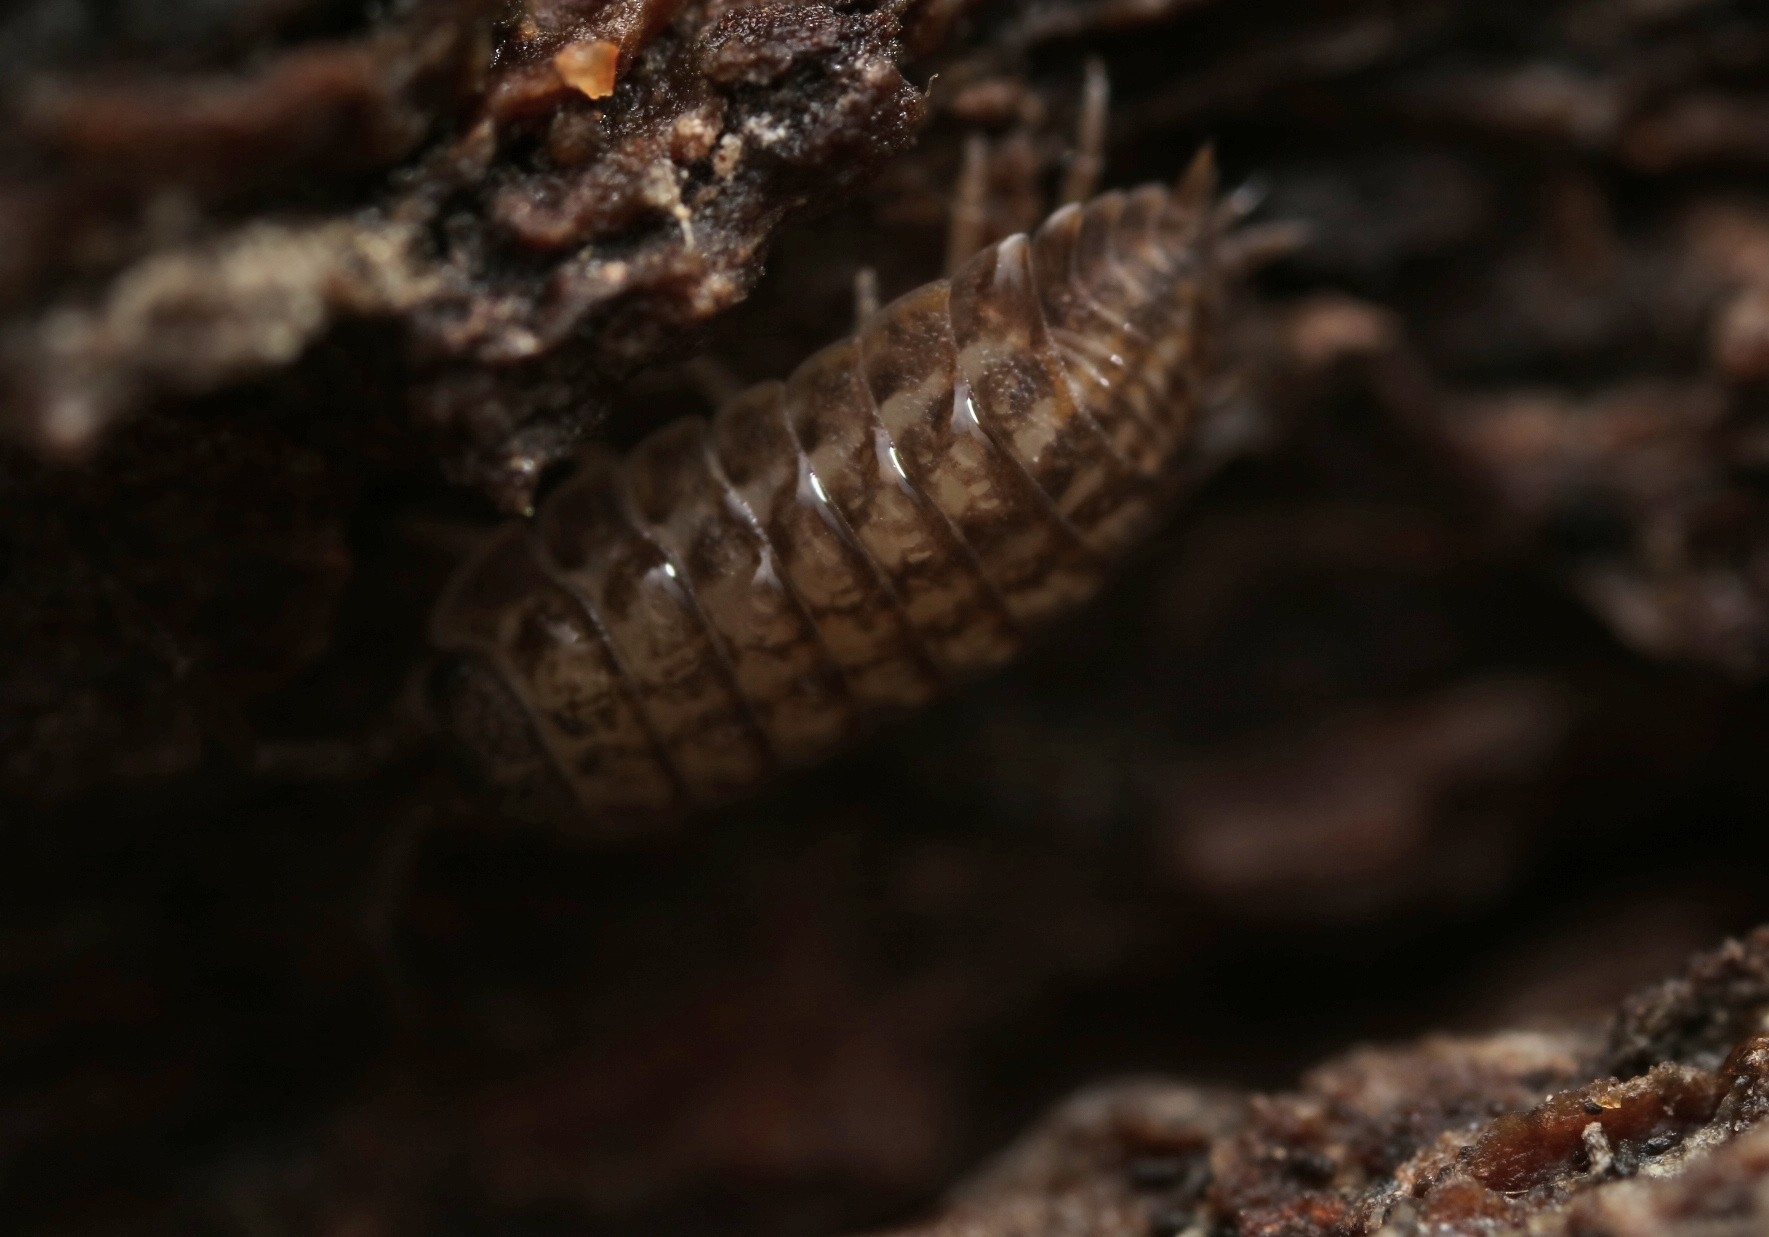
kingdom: Animalia
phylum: Arthropoda
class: Malacostraca
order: Isopoda
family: Trachelipodidae
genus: Trachelipus
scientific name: Trachelipus rathkii
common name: Isopod
